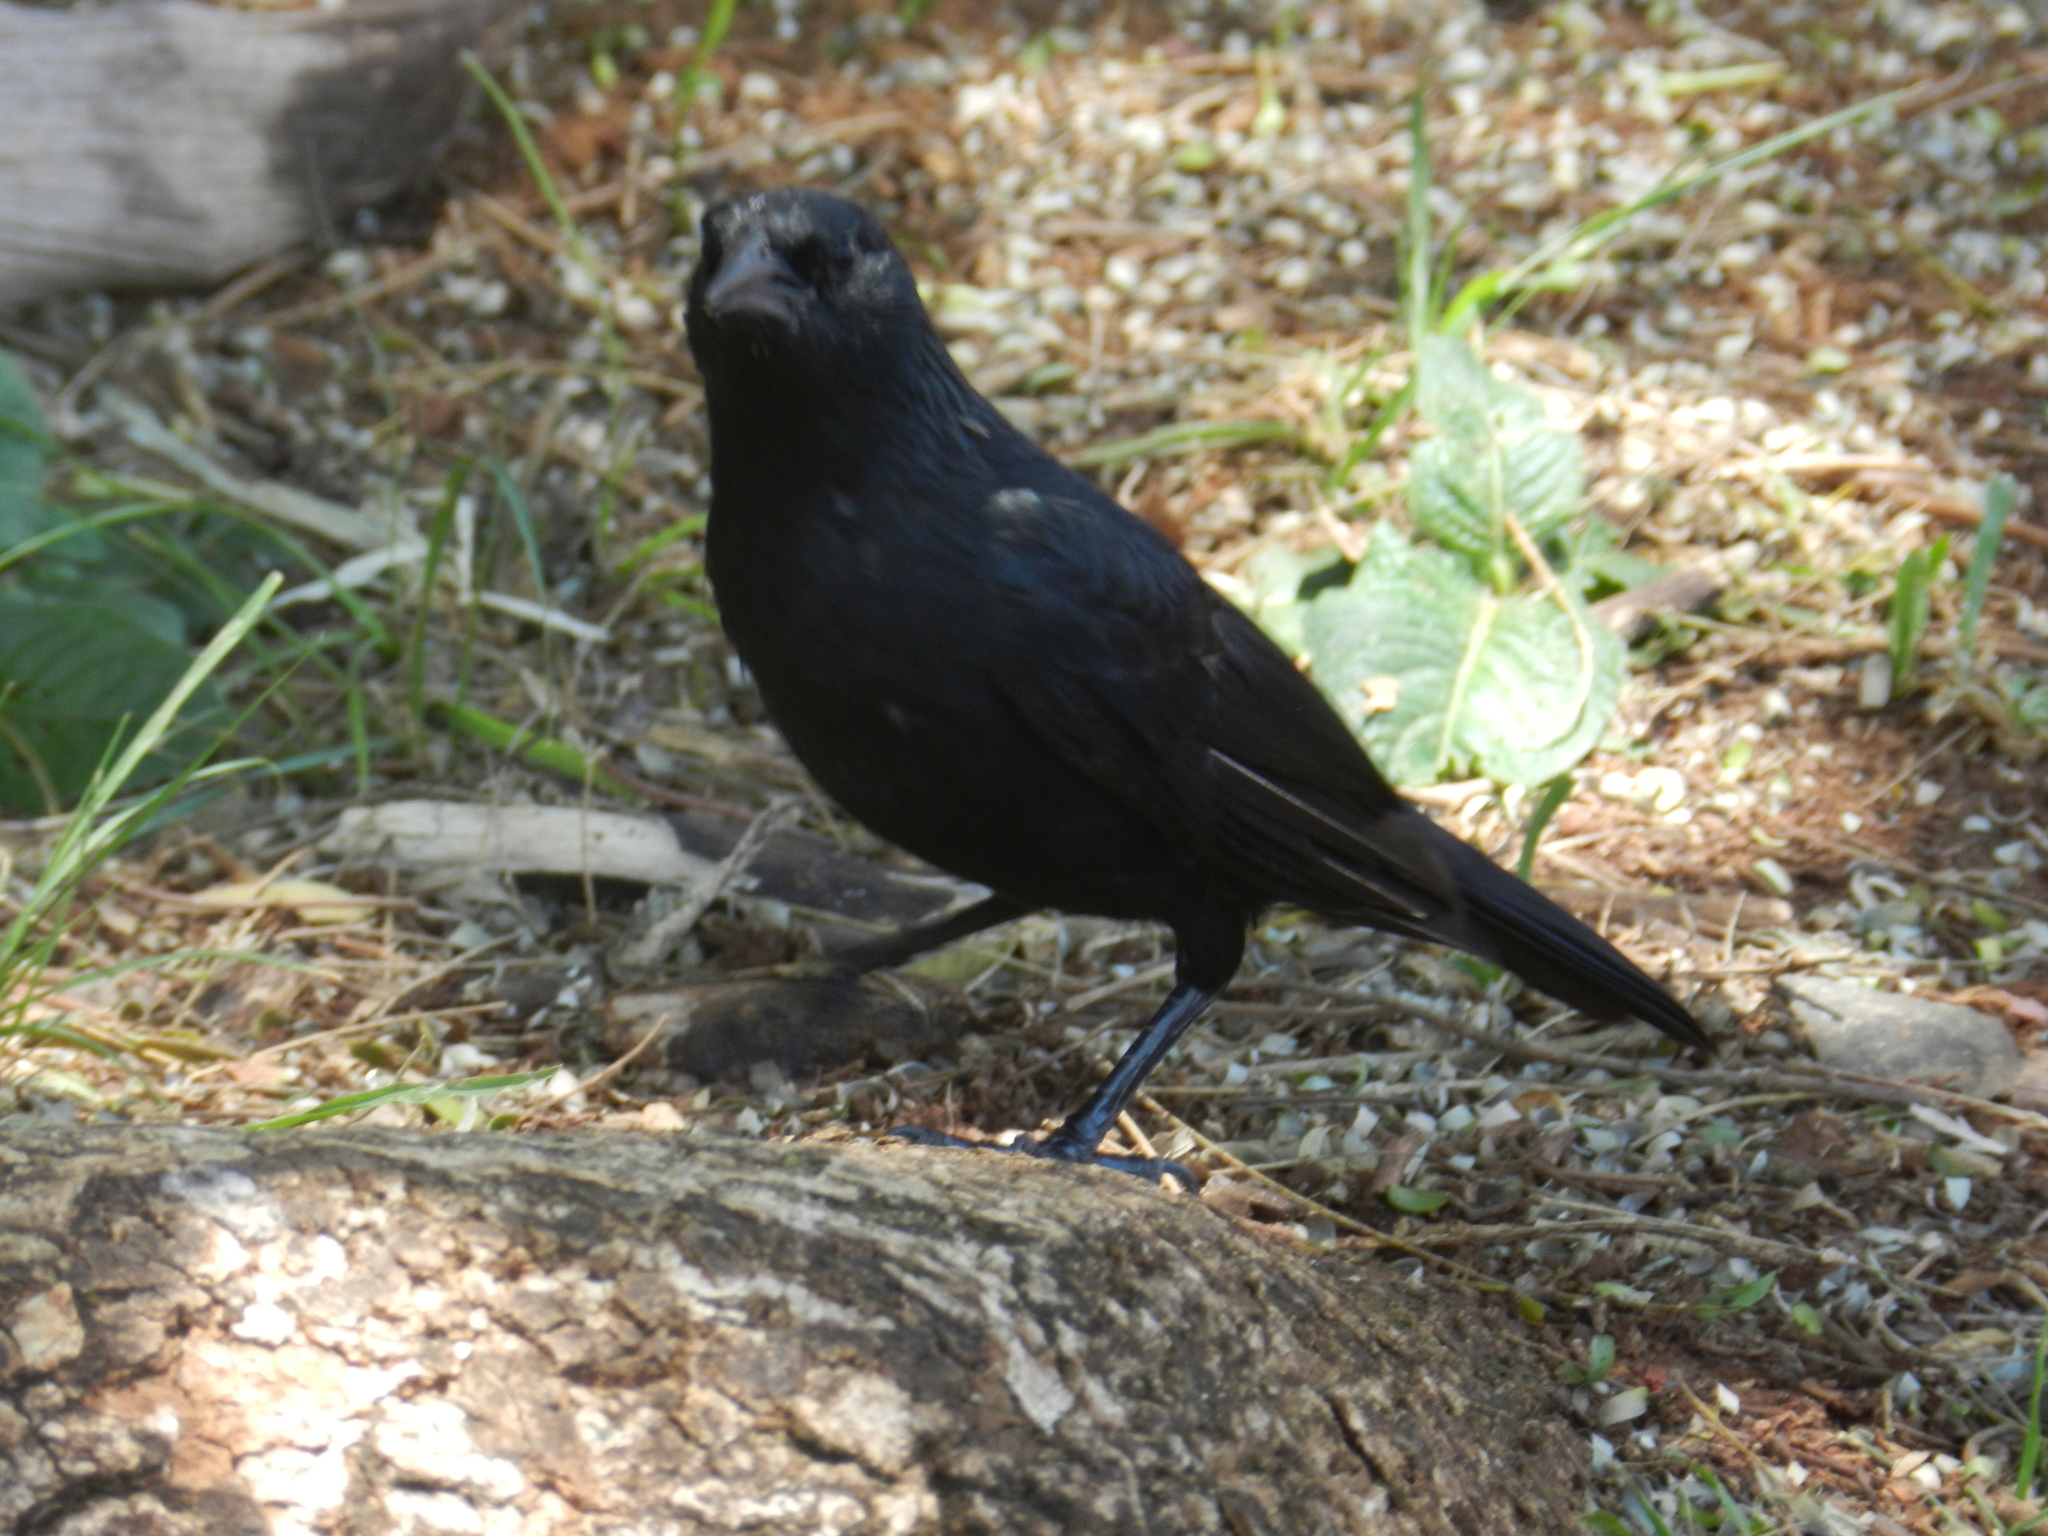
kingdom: Animalia
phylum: Chordata
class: Aves
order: Passeriformes
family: Icteridae
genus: Gnorimopsar
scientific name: Gnorimopsar chopi
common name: Chopi blackbird
